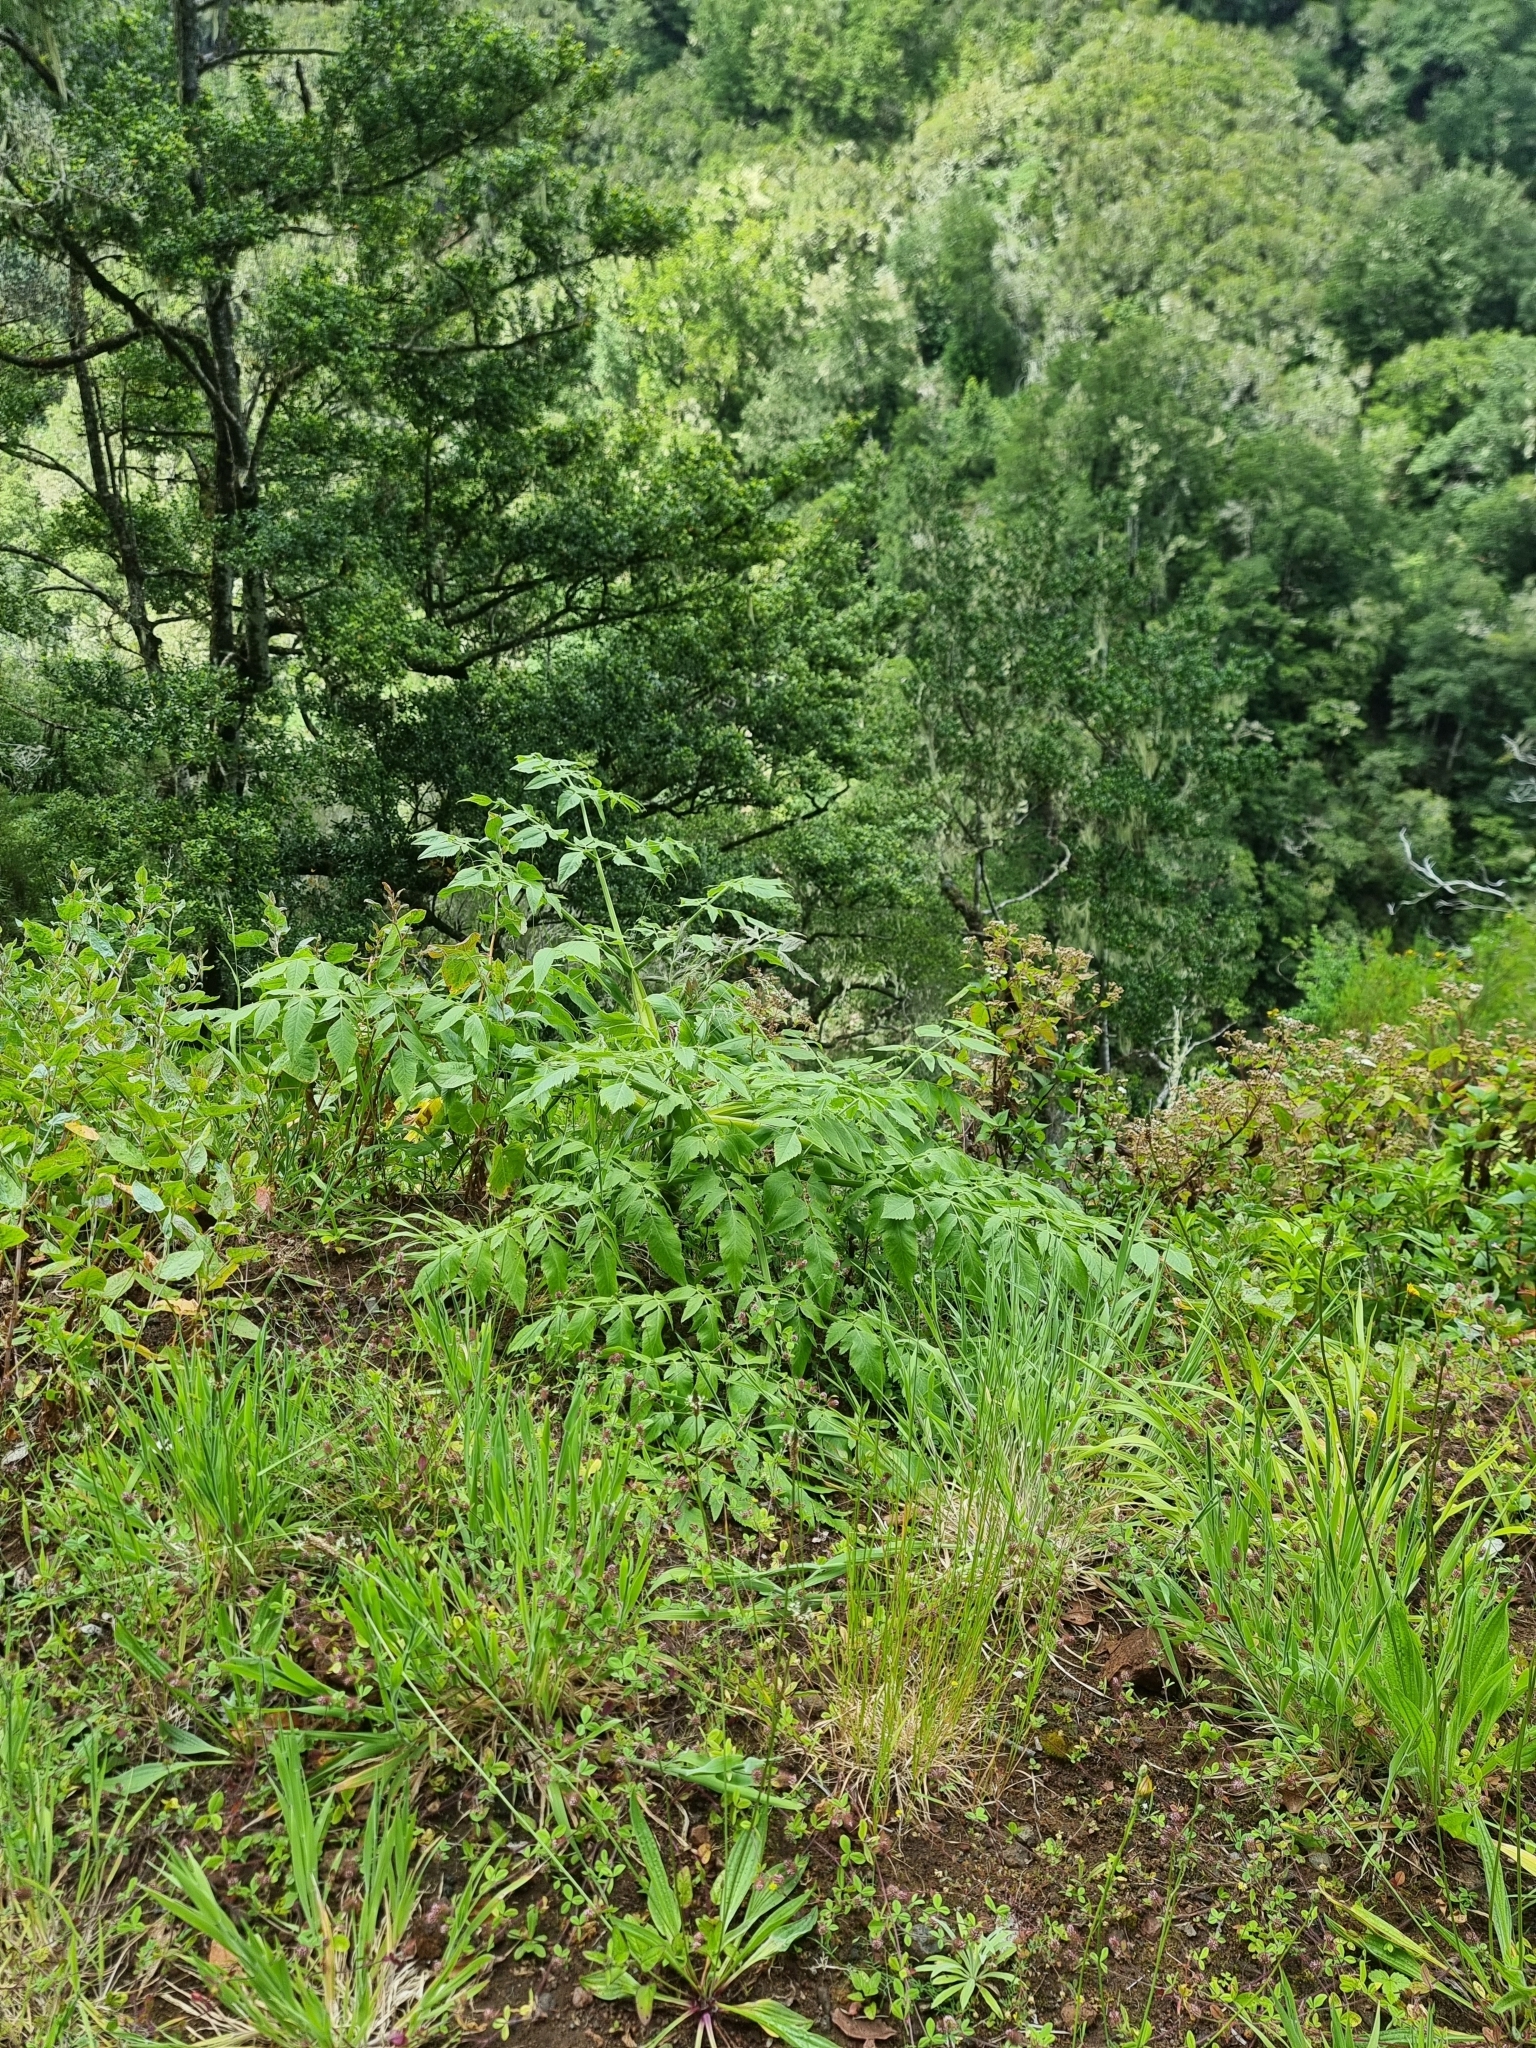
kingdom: Plantae
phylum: Tracheophyta
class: Magnoliopsida
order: Apiales
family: Apiaceae
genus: Daucus
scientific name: Daucus decipiens
